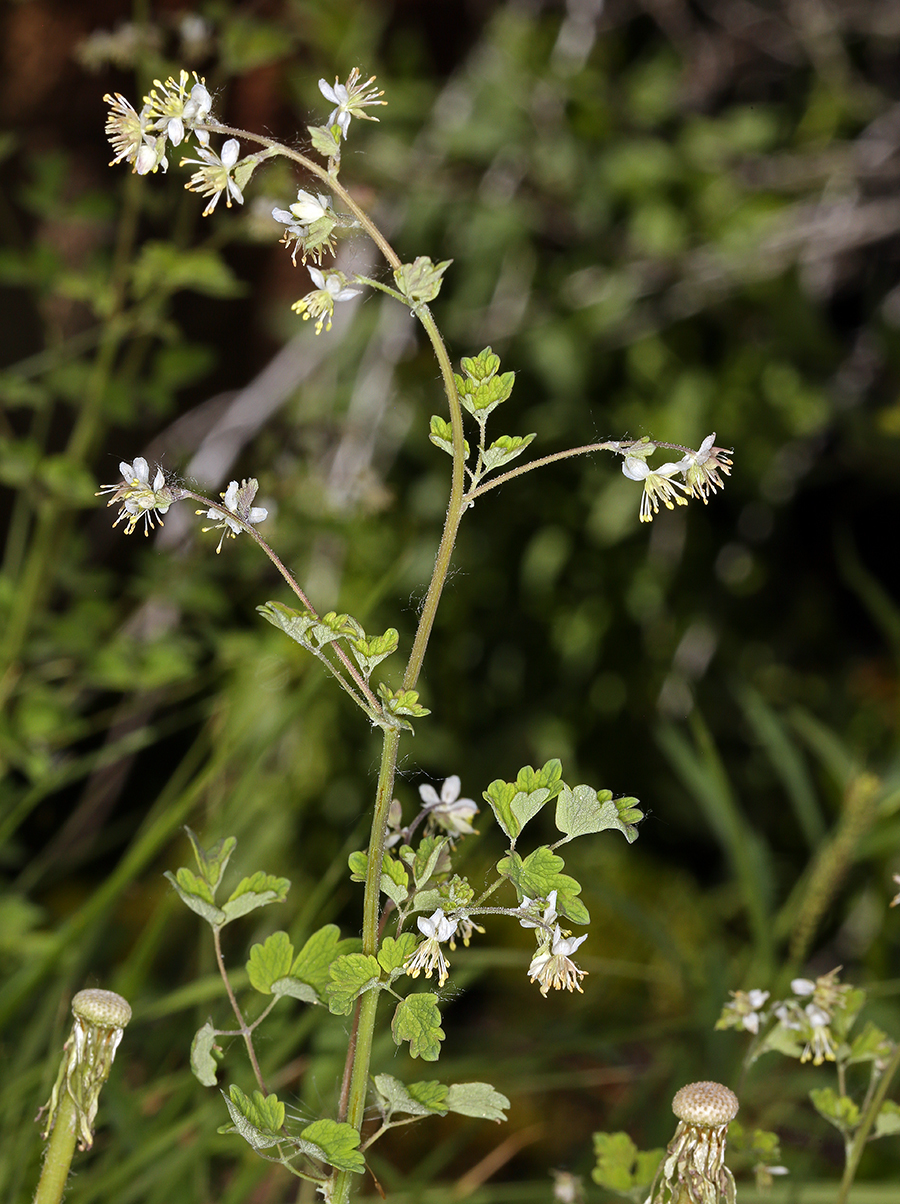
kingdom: Plantae
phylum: Tracheophyta
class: Magnoliopsida
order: Ranunculales
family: Ranunculaceae
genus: Thalictrum
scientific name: Thalictrum sparsiflorum
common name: Mountain meadow-rue
